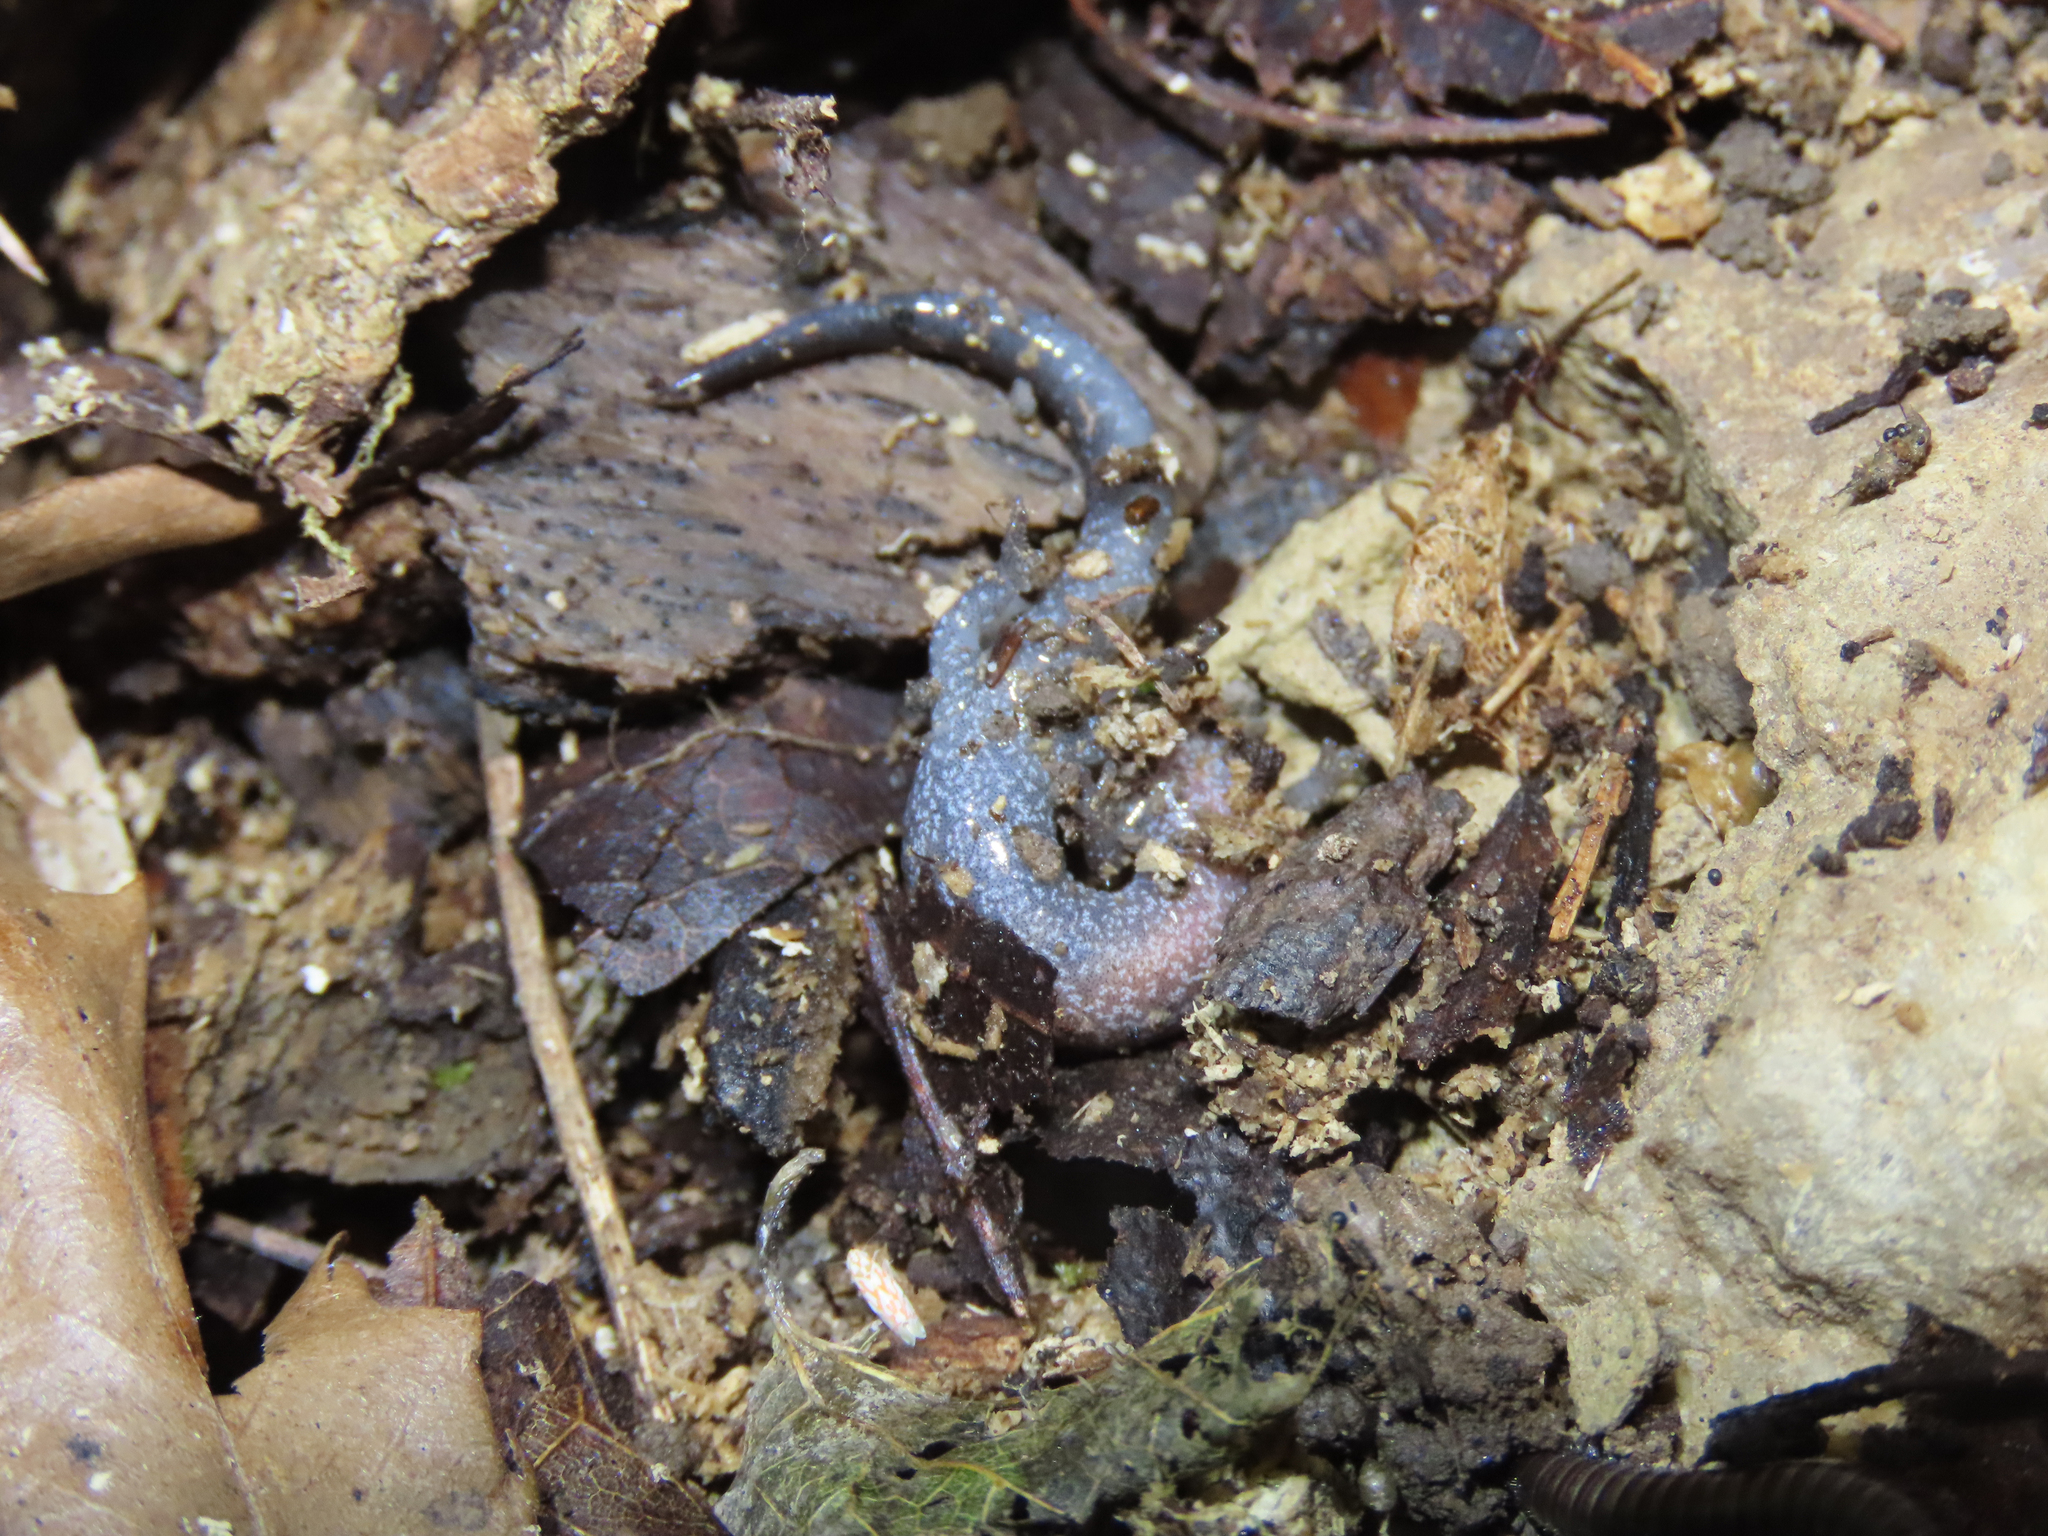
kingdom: Animalia
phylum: Chordata
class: Amphibia
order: Caudata
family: Plethodontidae
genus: Plethodon
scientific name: Plethodon dorsalis
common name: Northern zigzag salamander
